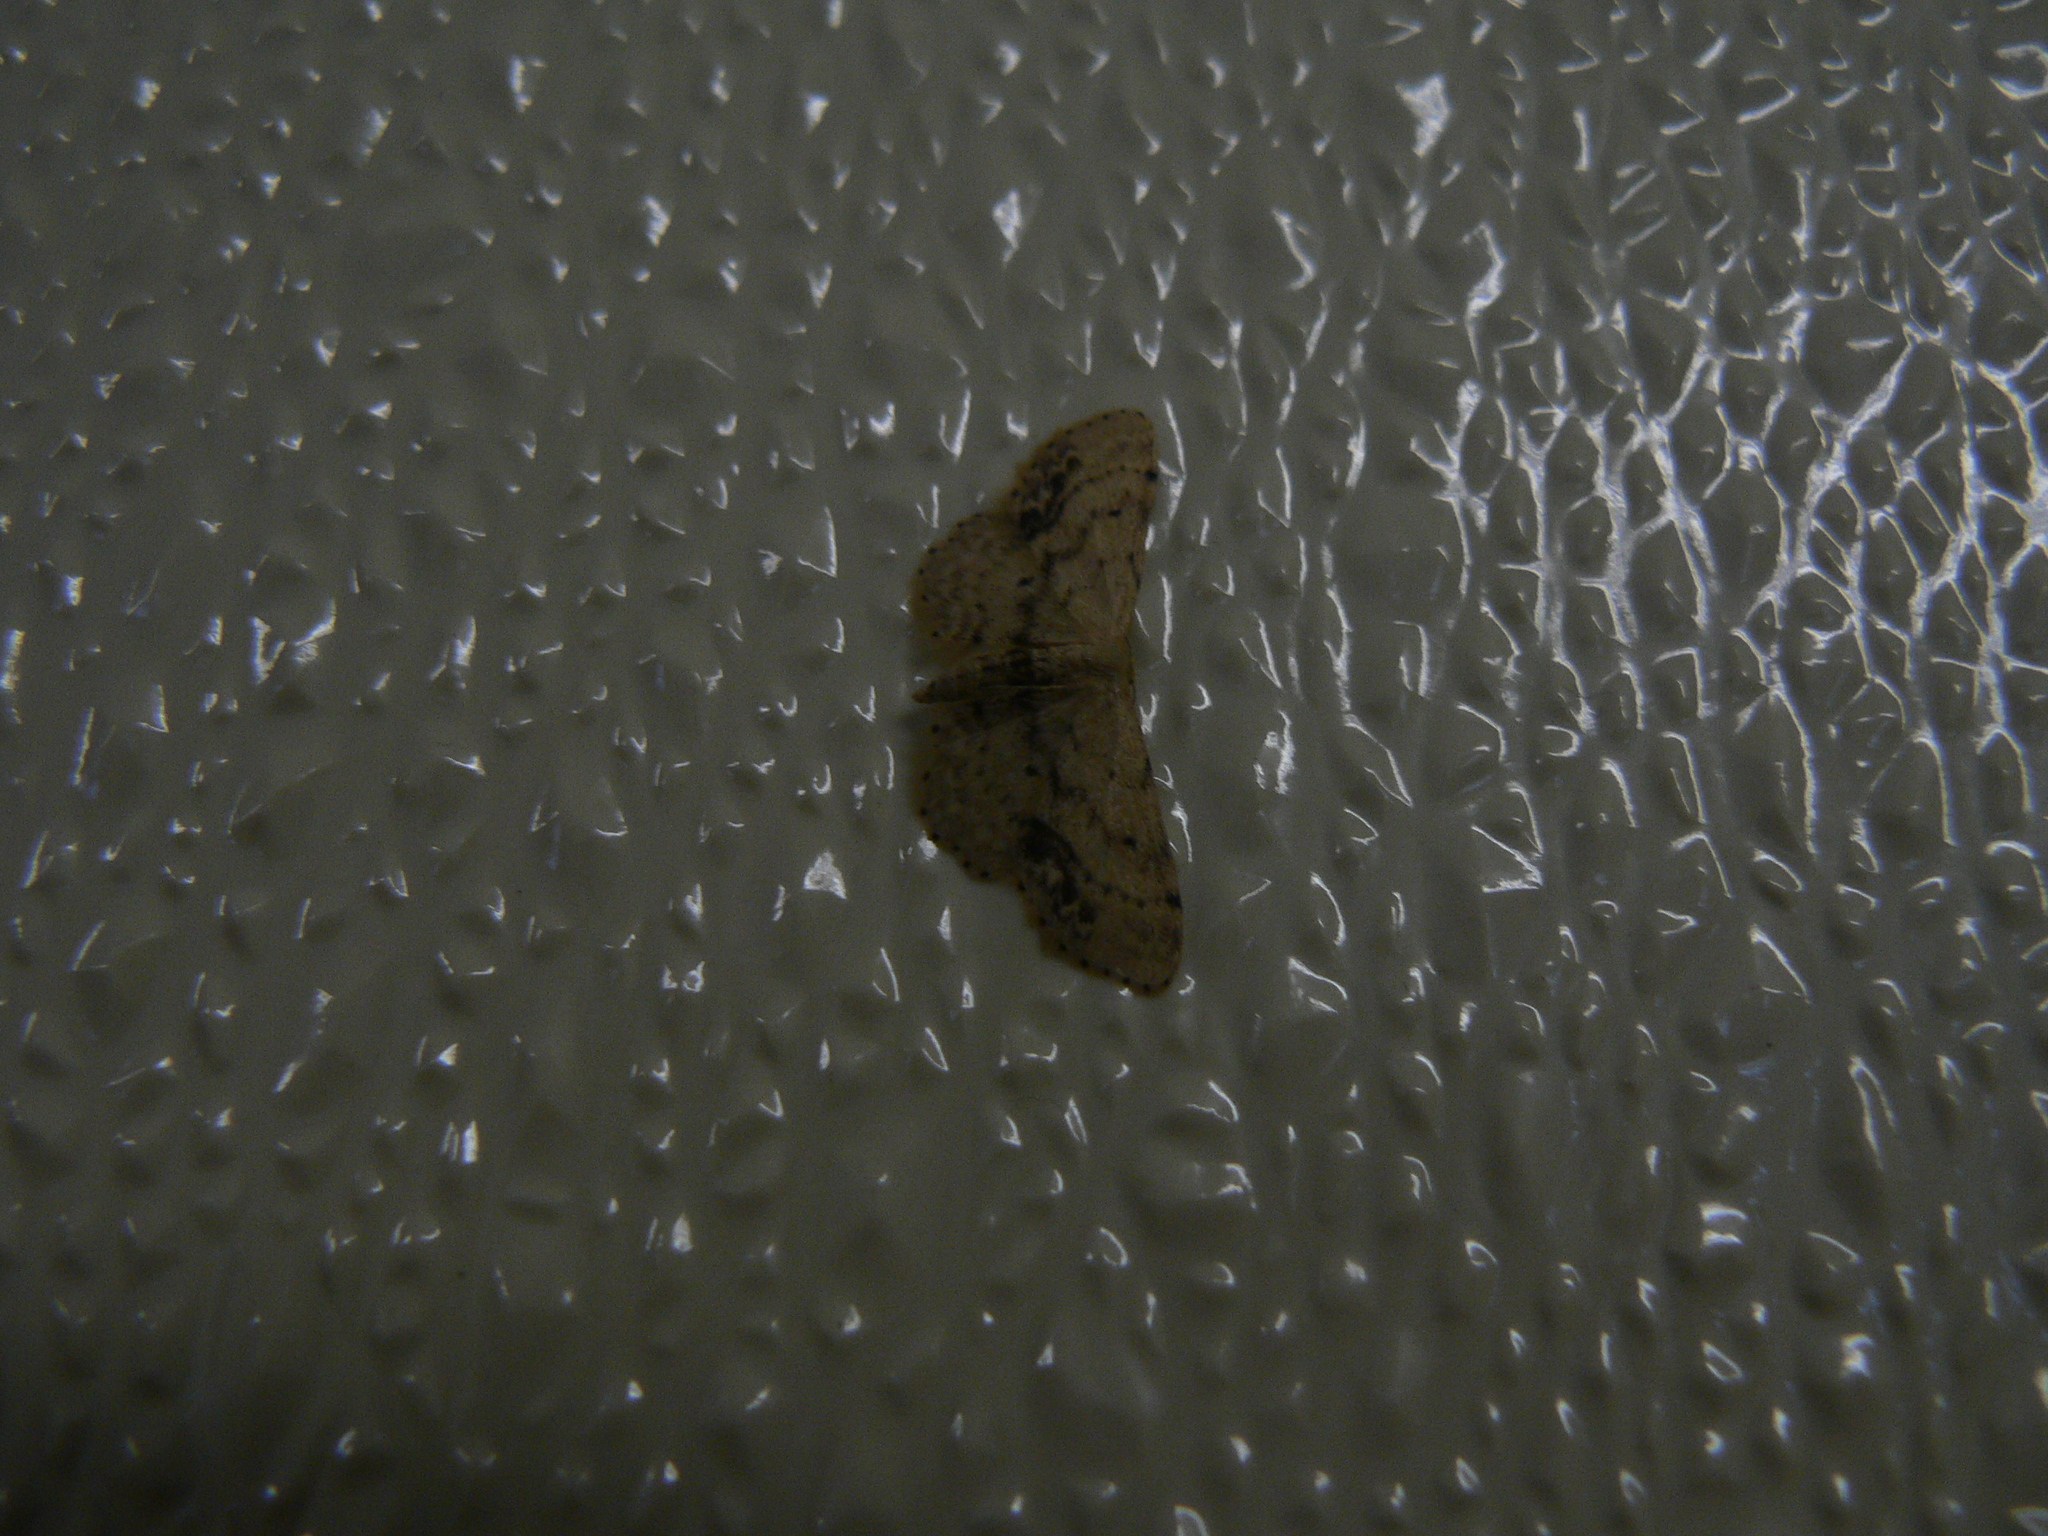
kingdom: Animalia
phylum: Arthropoda
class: Insecta
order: Lepidoptera
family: Geometridae
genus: Idaea
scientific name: Idaea dimidiata
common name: Single-dotted wave
